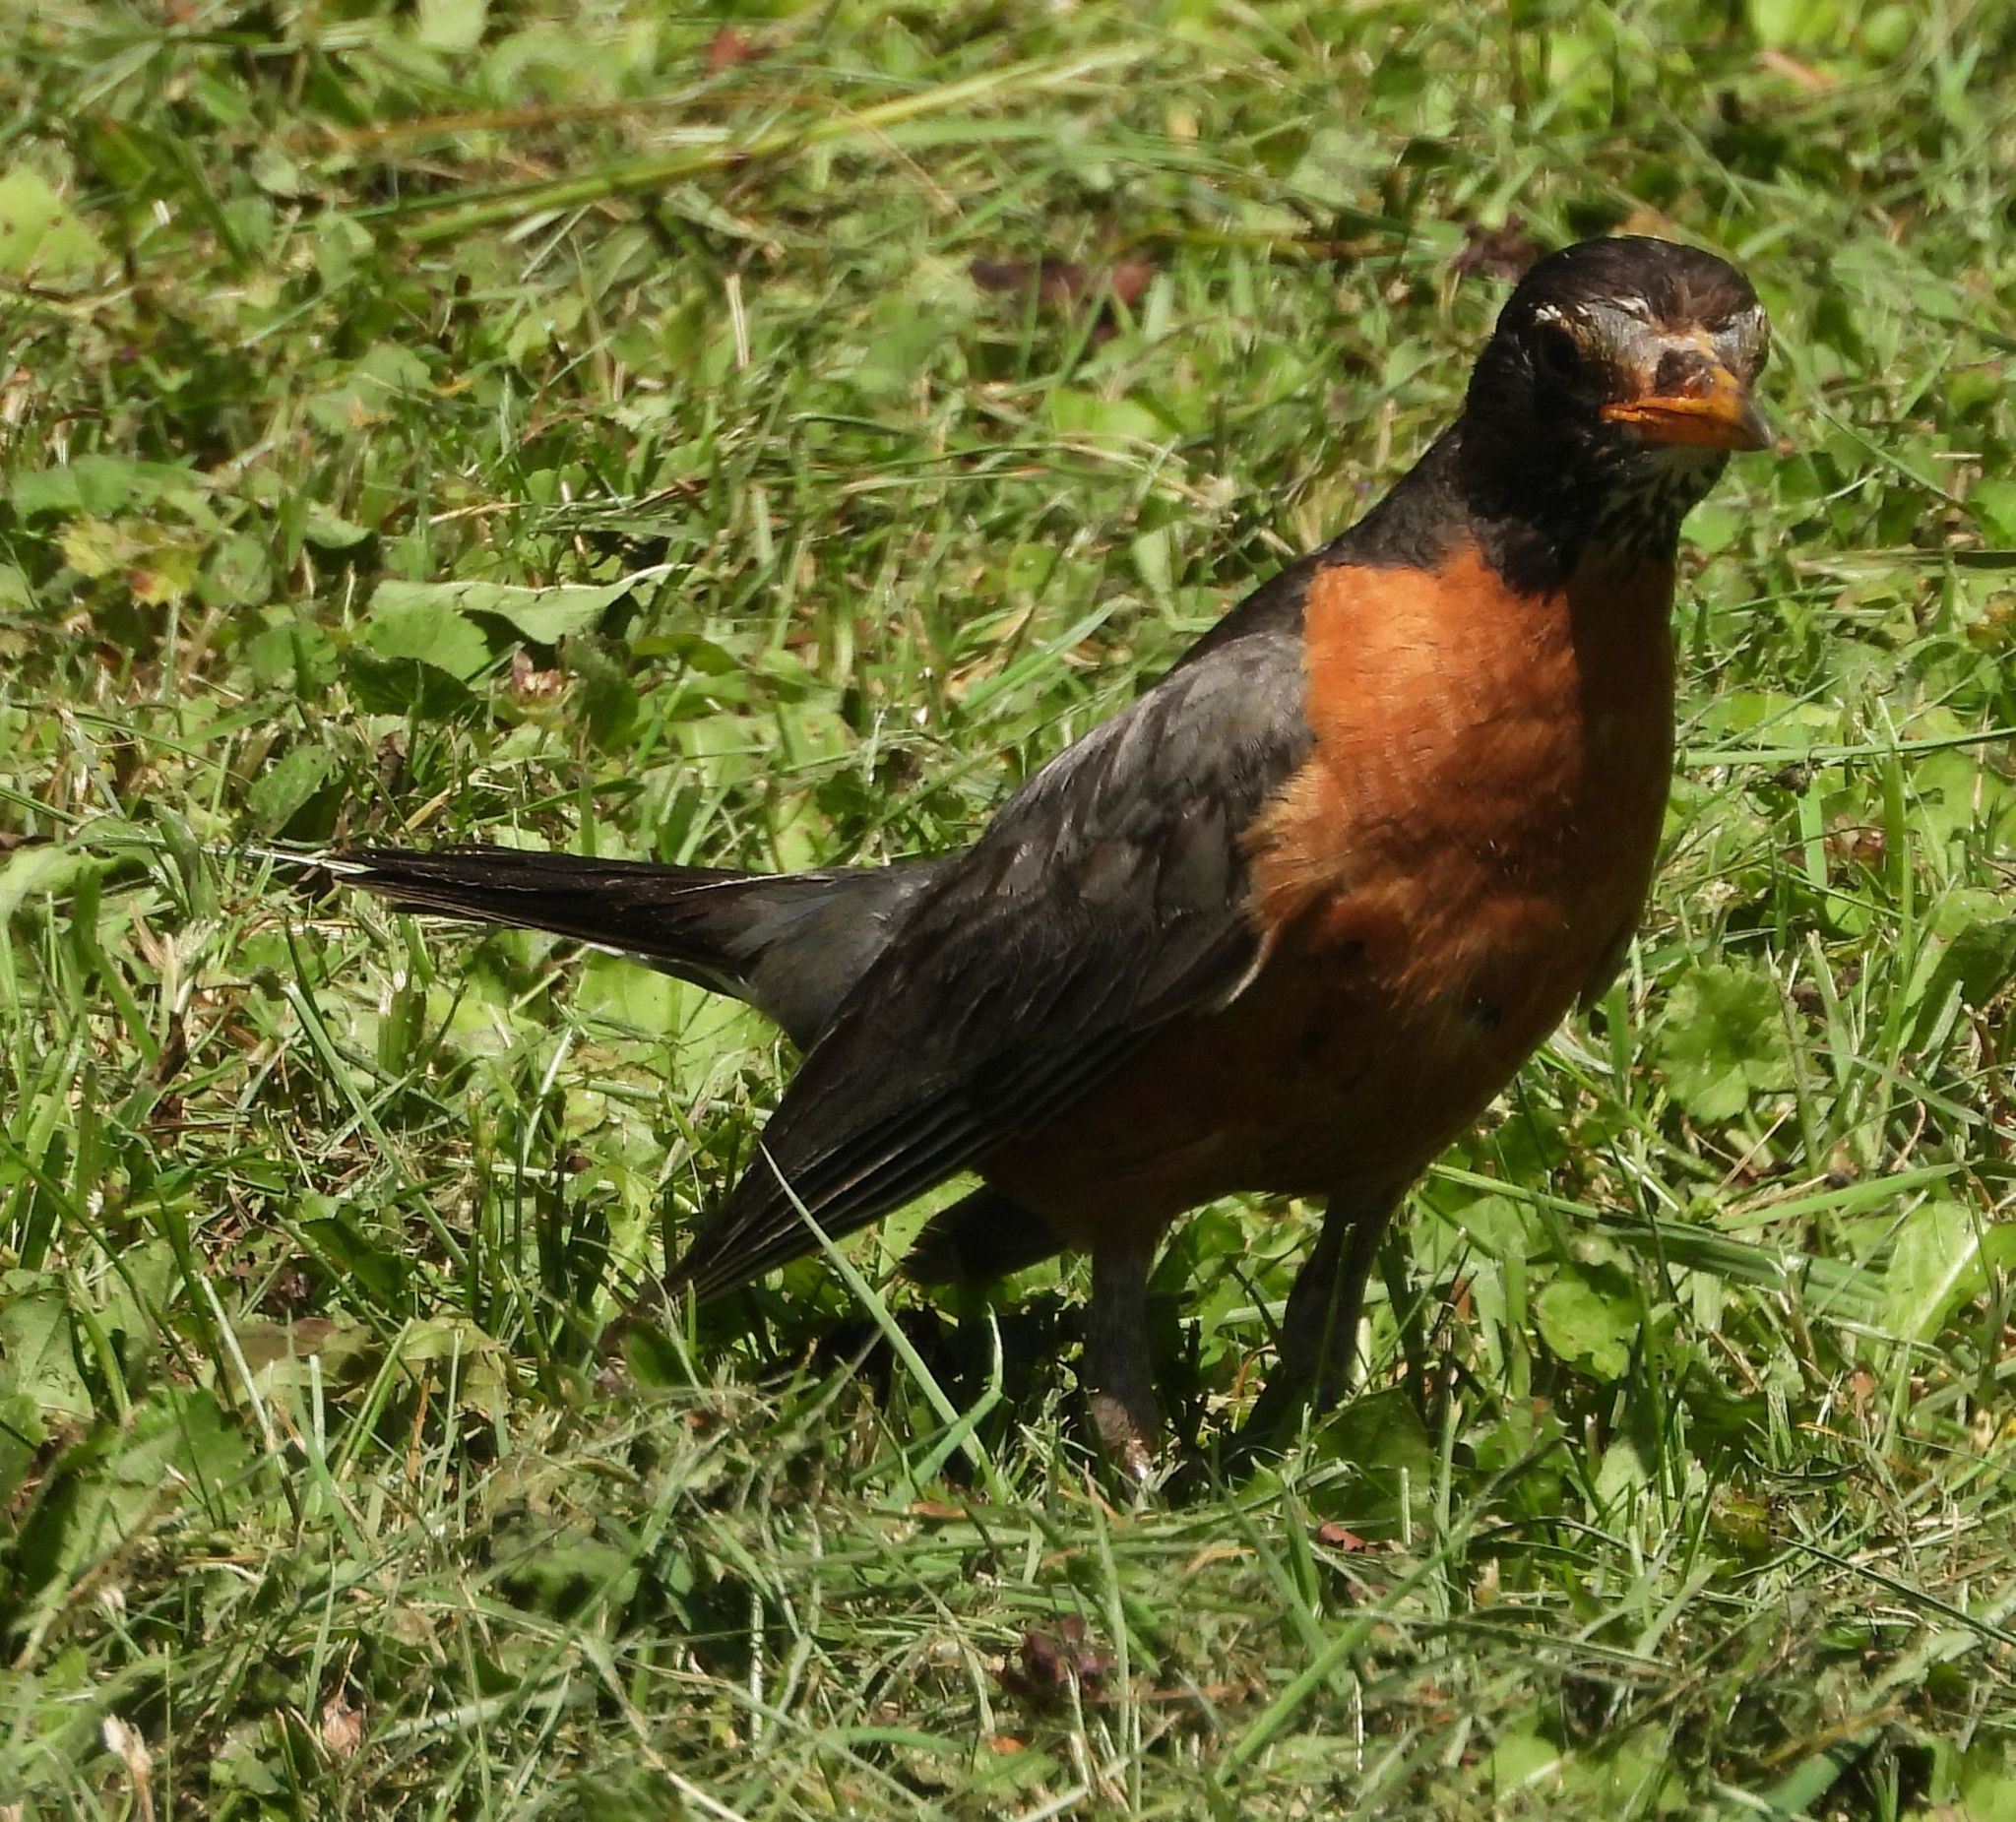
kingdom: Animalia
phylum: Chordata
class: Aves
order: Passeriformes
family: Turdidae
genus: Turdus
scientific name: Turdus migratorius
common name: American robin
